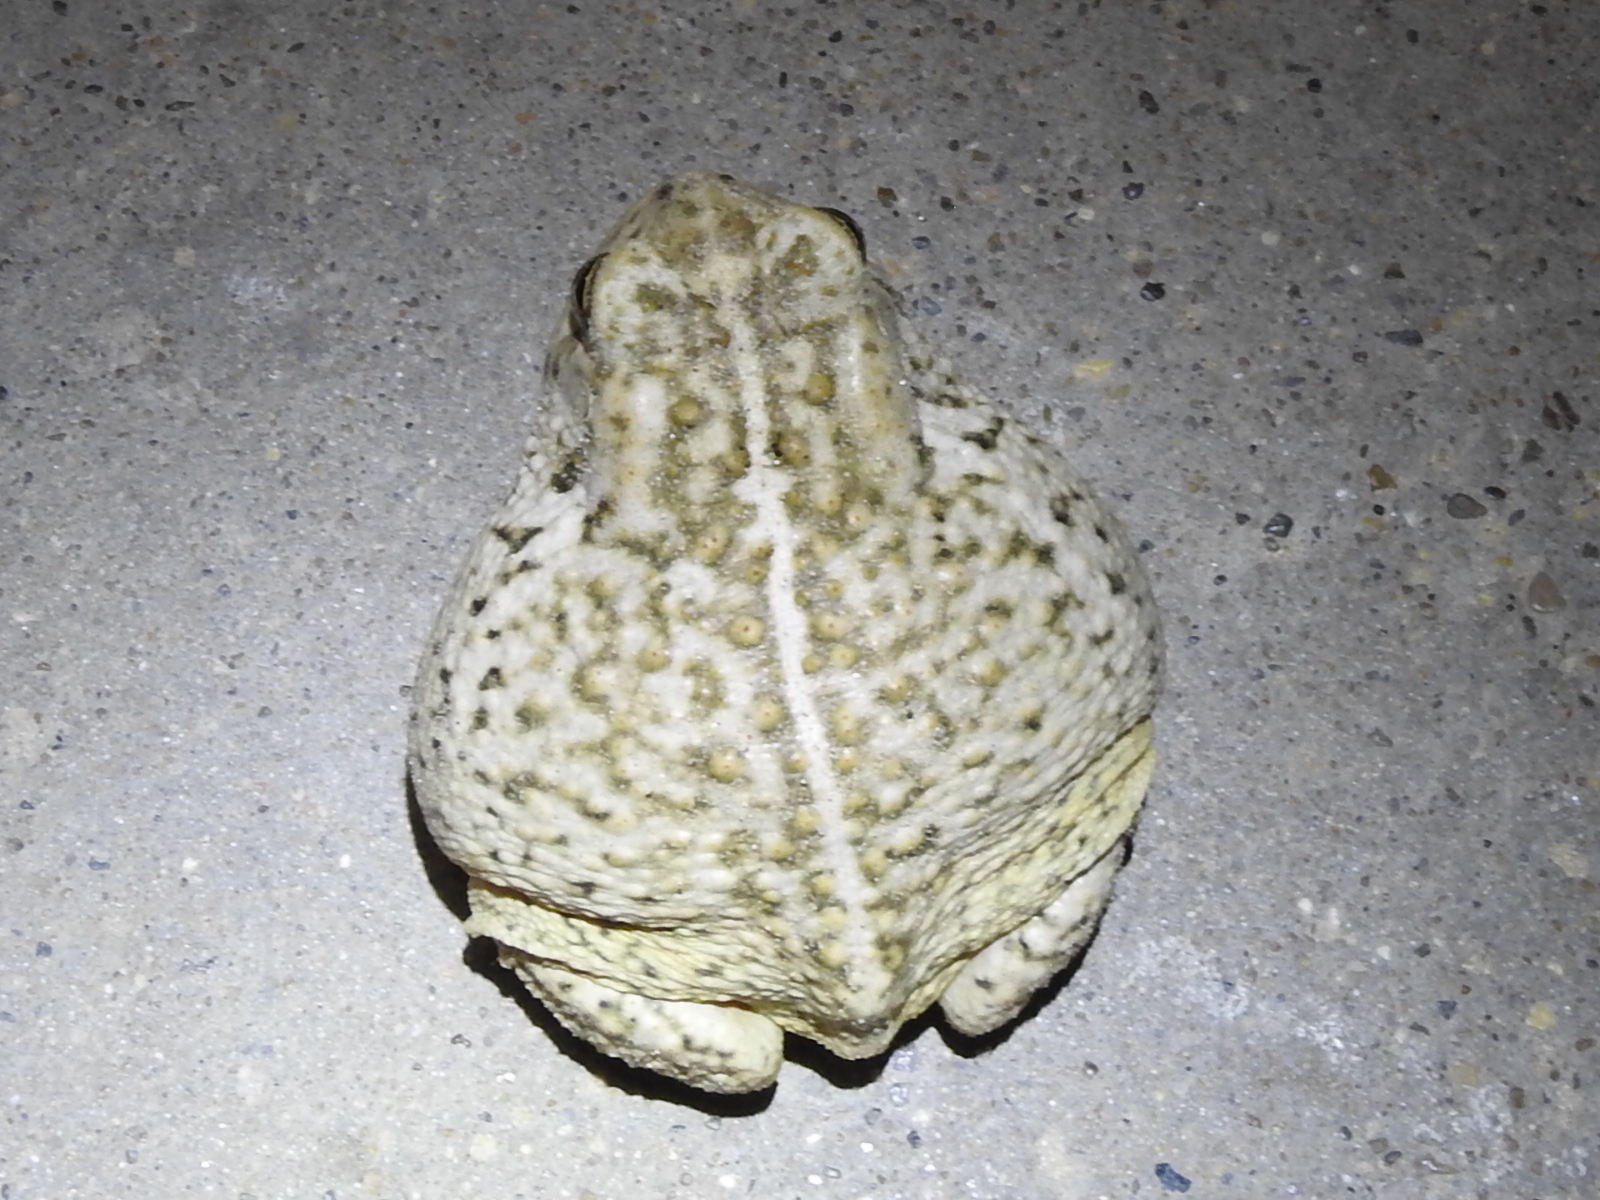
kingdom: Animalia
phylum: Chordata
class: Amphibia
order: Anura
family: Bufonidae
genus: Anaxyrus
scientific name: Anaxyrus woodhousii
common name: Woodhouse's toad
